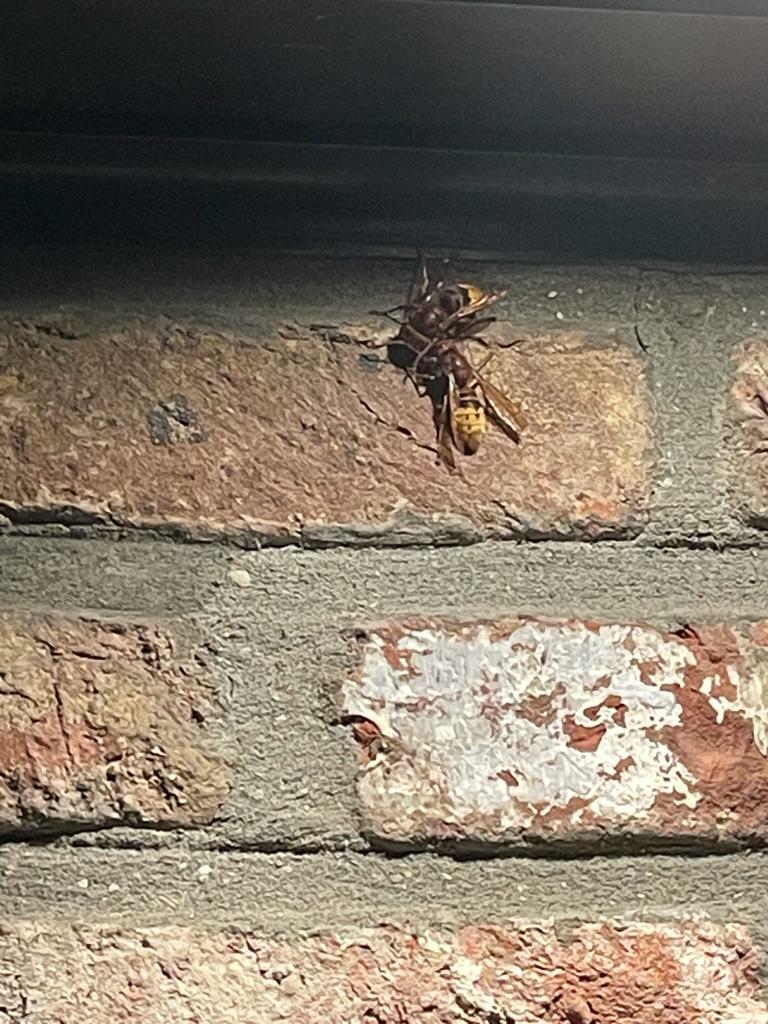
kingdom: Animalia
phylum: Arthropoda
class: Insecta
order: Hymenoptera
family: Vespidae
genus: Vespa
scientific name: Vespa crabro
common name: Hornet
